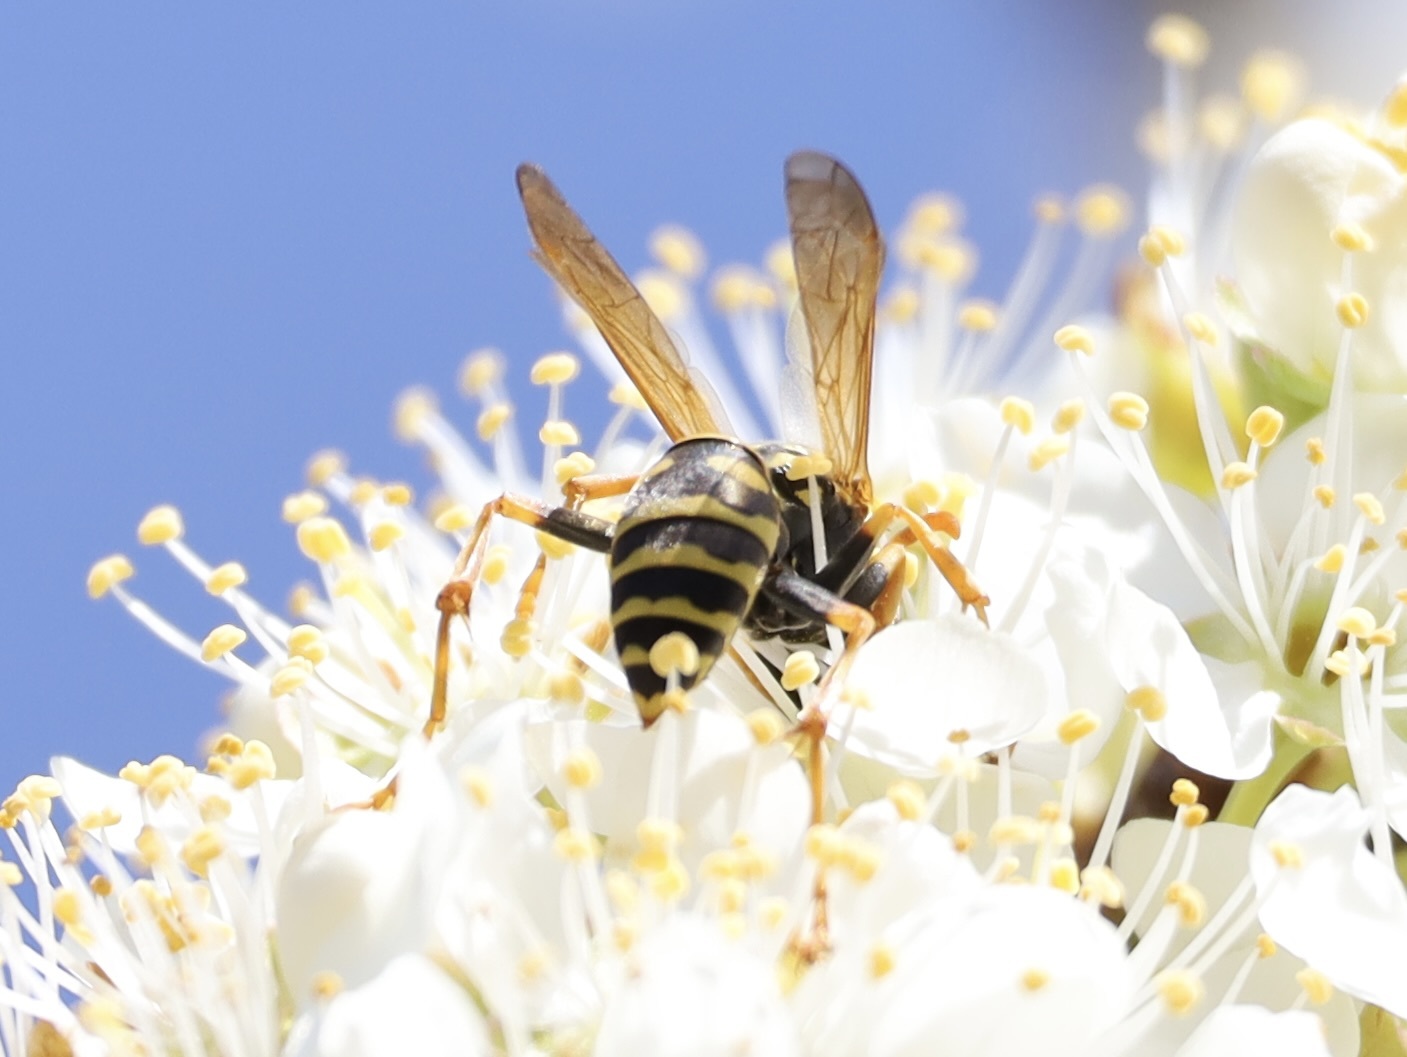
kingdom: Animalia
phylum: Arthropoda
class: Insecta
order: Hymenoptera
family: Eumenidae
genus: Polistes
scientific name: Polistes dominula
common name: Paper wasp
